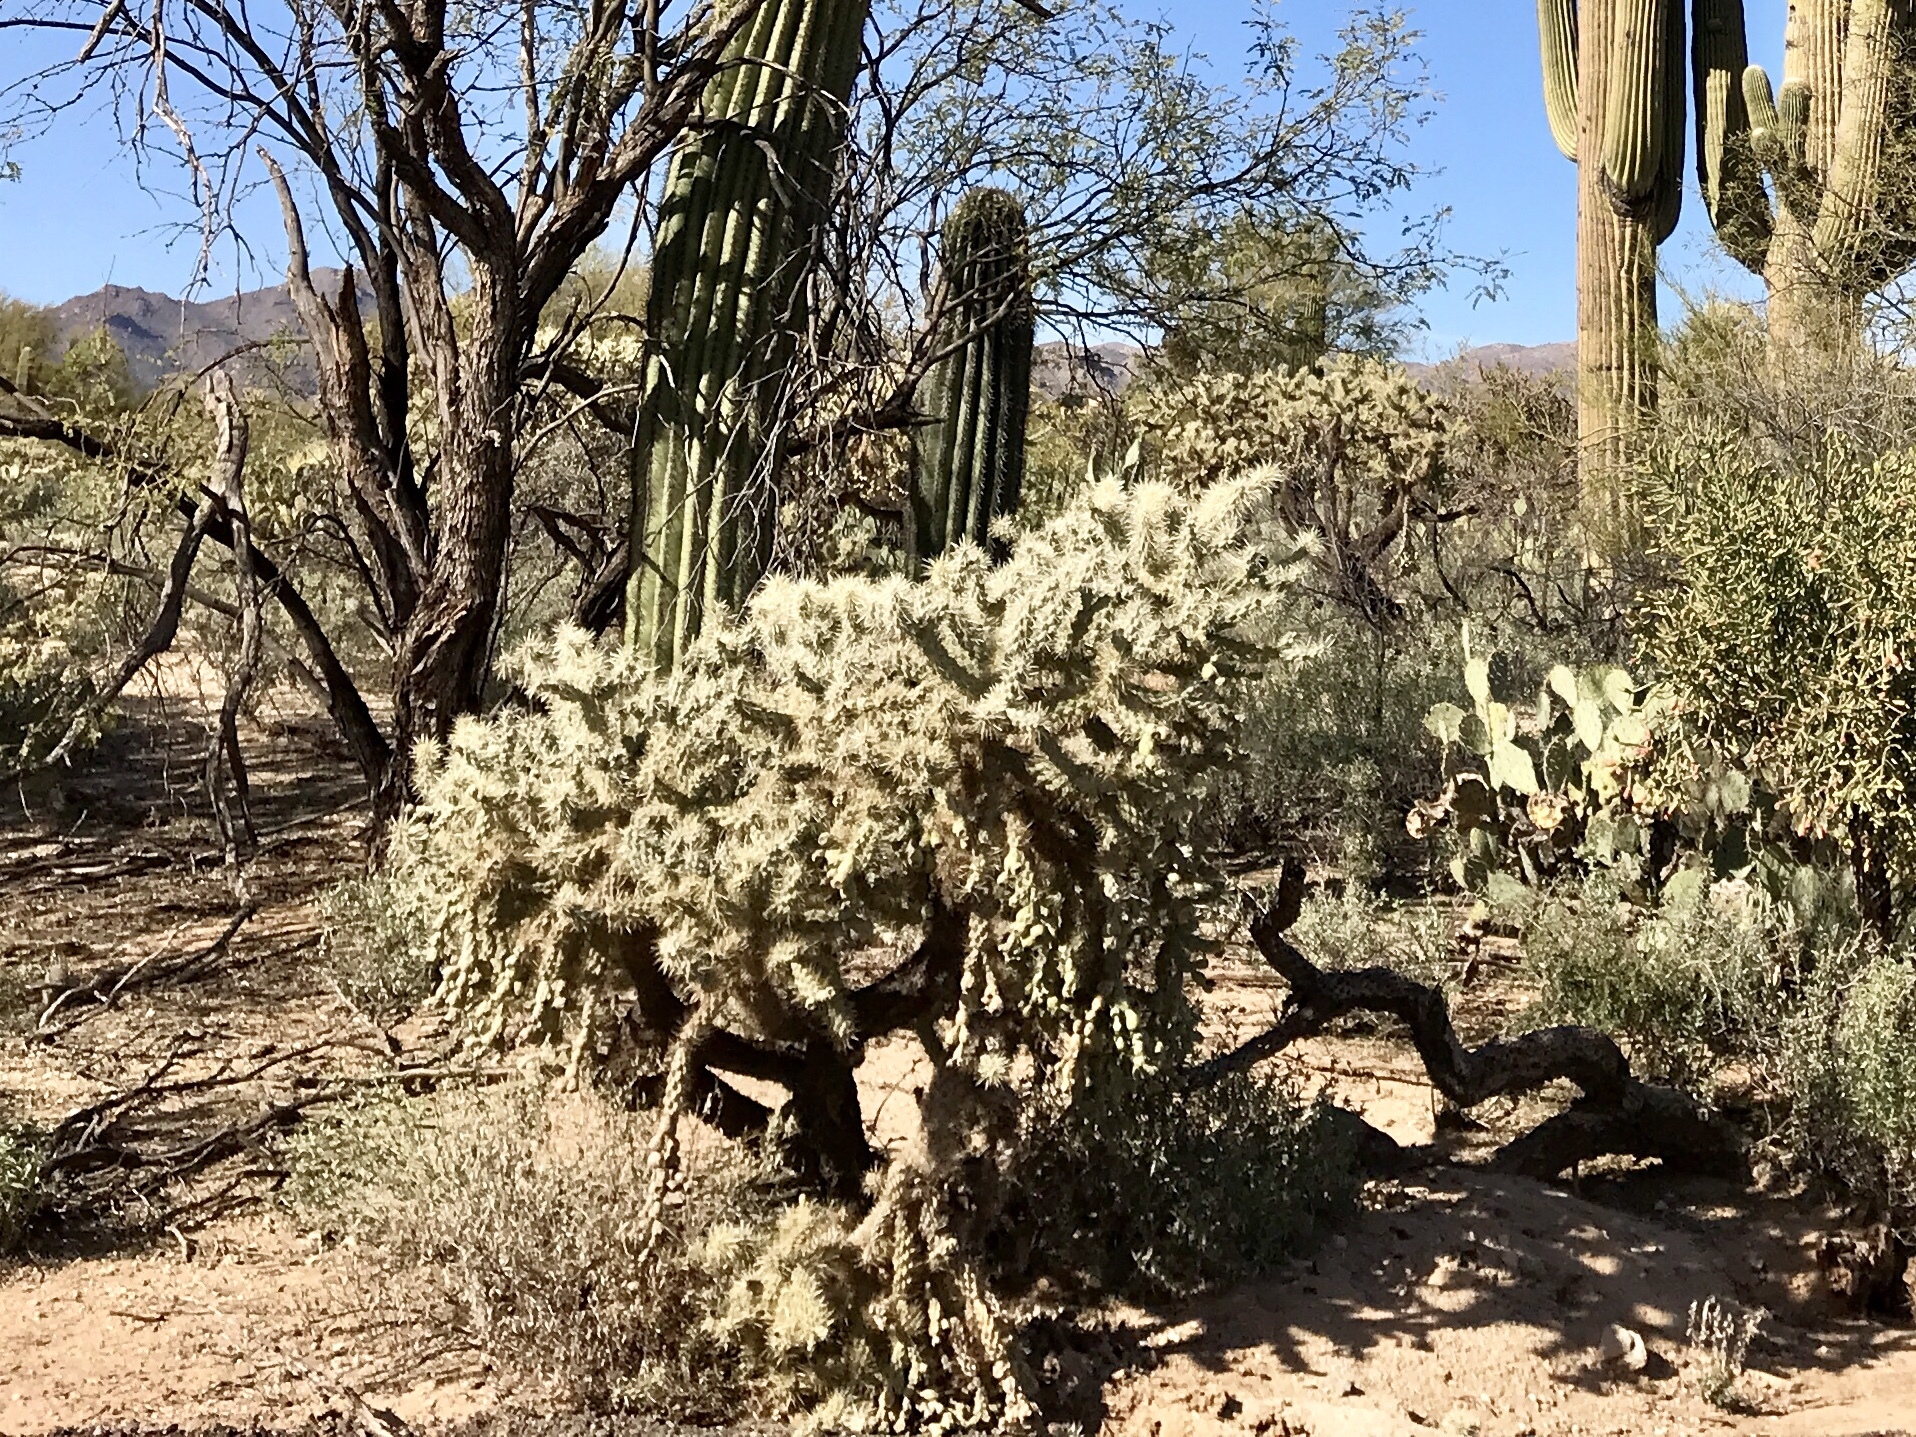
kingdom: Plantae
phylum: Tracheophyta
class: Magnoliopsida
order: Caryophyllales
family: Cactaceae
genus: Cylindropuntia
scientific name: Cylindropuntia fulgida
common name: Jumping cholla
